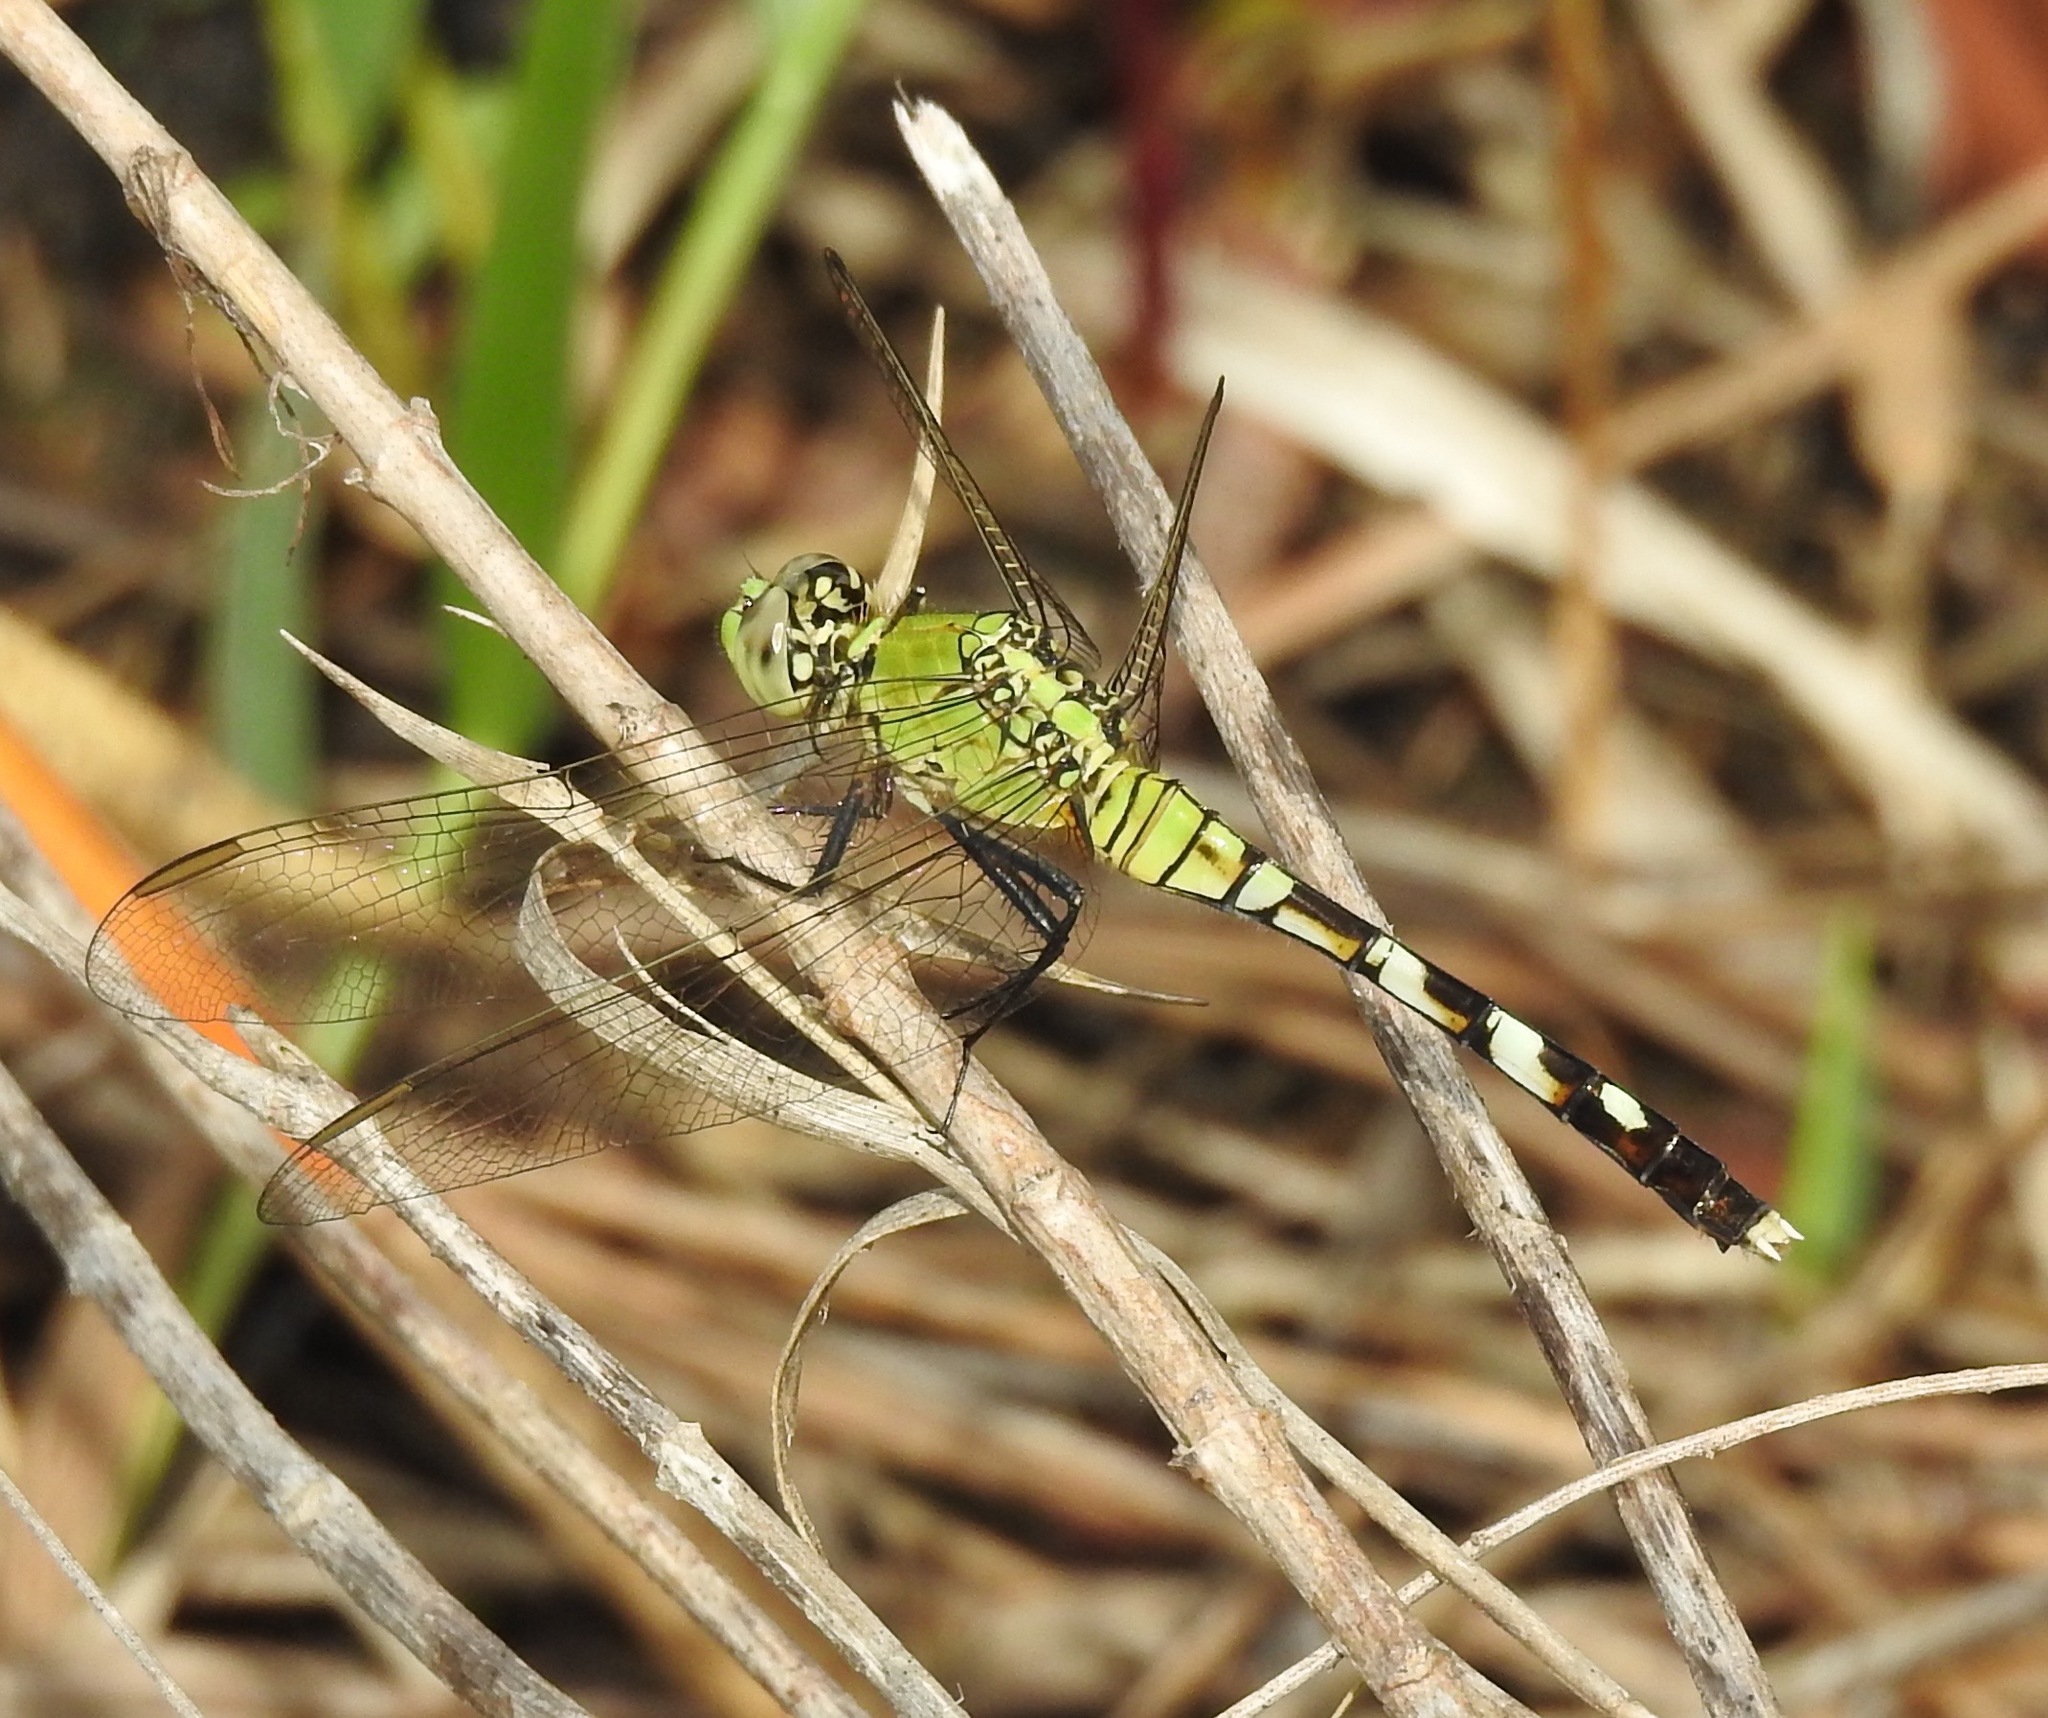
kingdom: Animalia
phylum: Arthropoda
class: Insecta
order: Odonata
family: Libellulidae
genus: Erythemis
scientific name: Erythemis simplicicollis
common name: Eastern pondhawk
